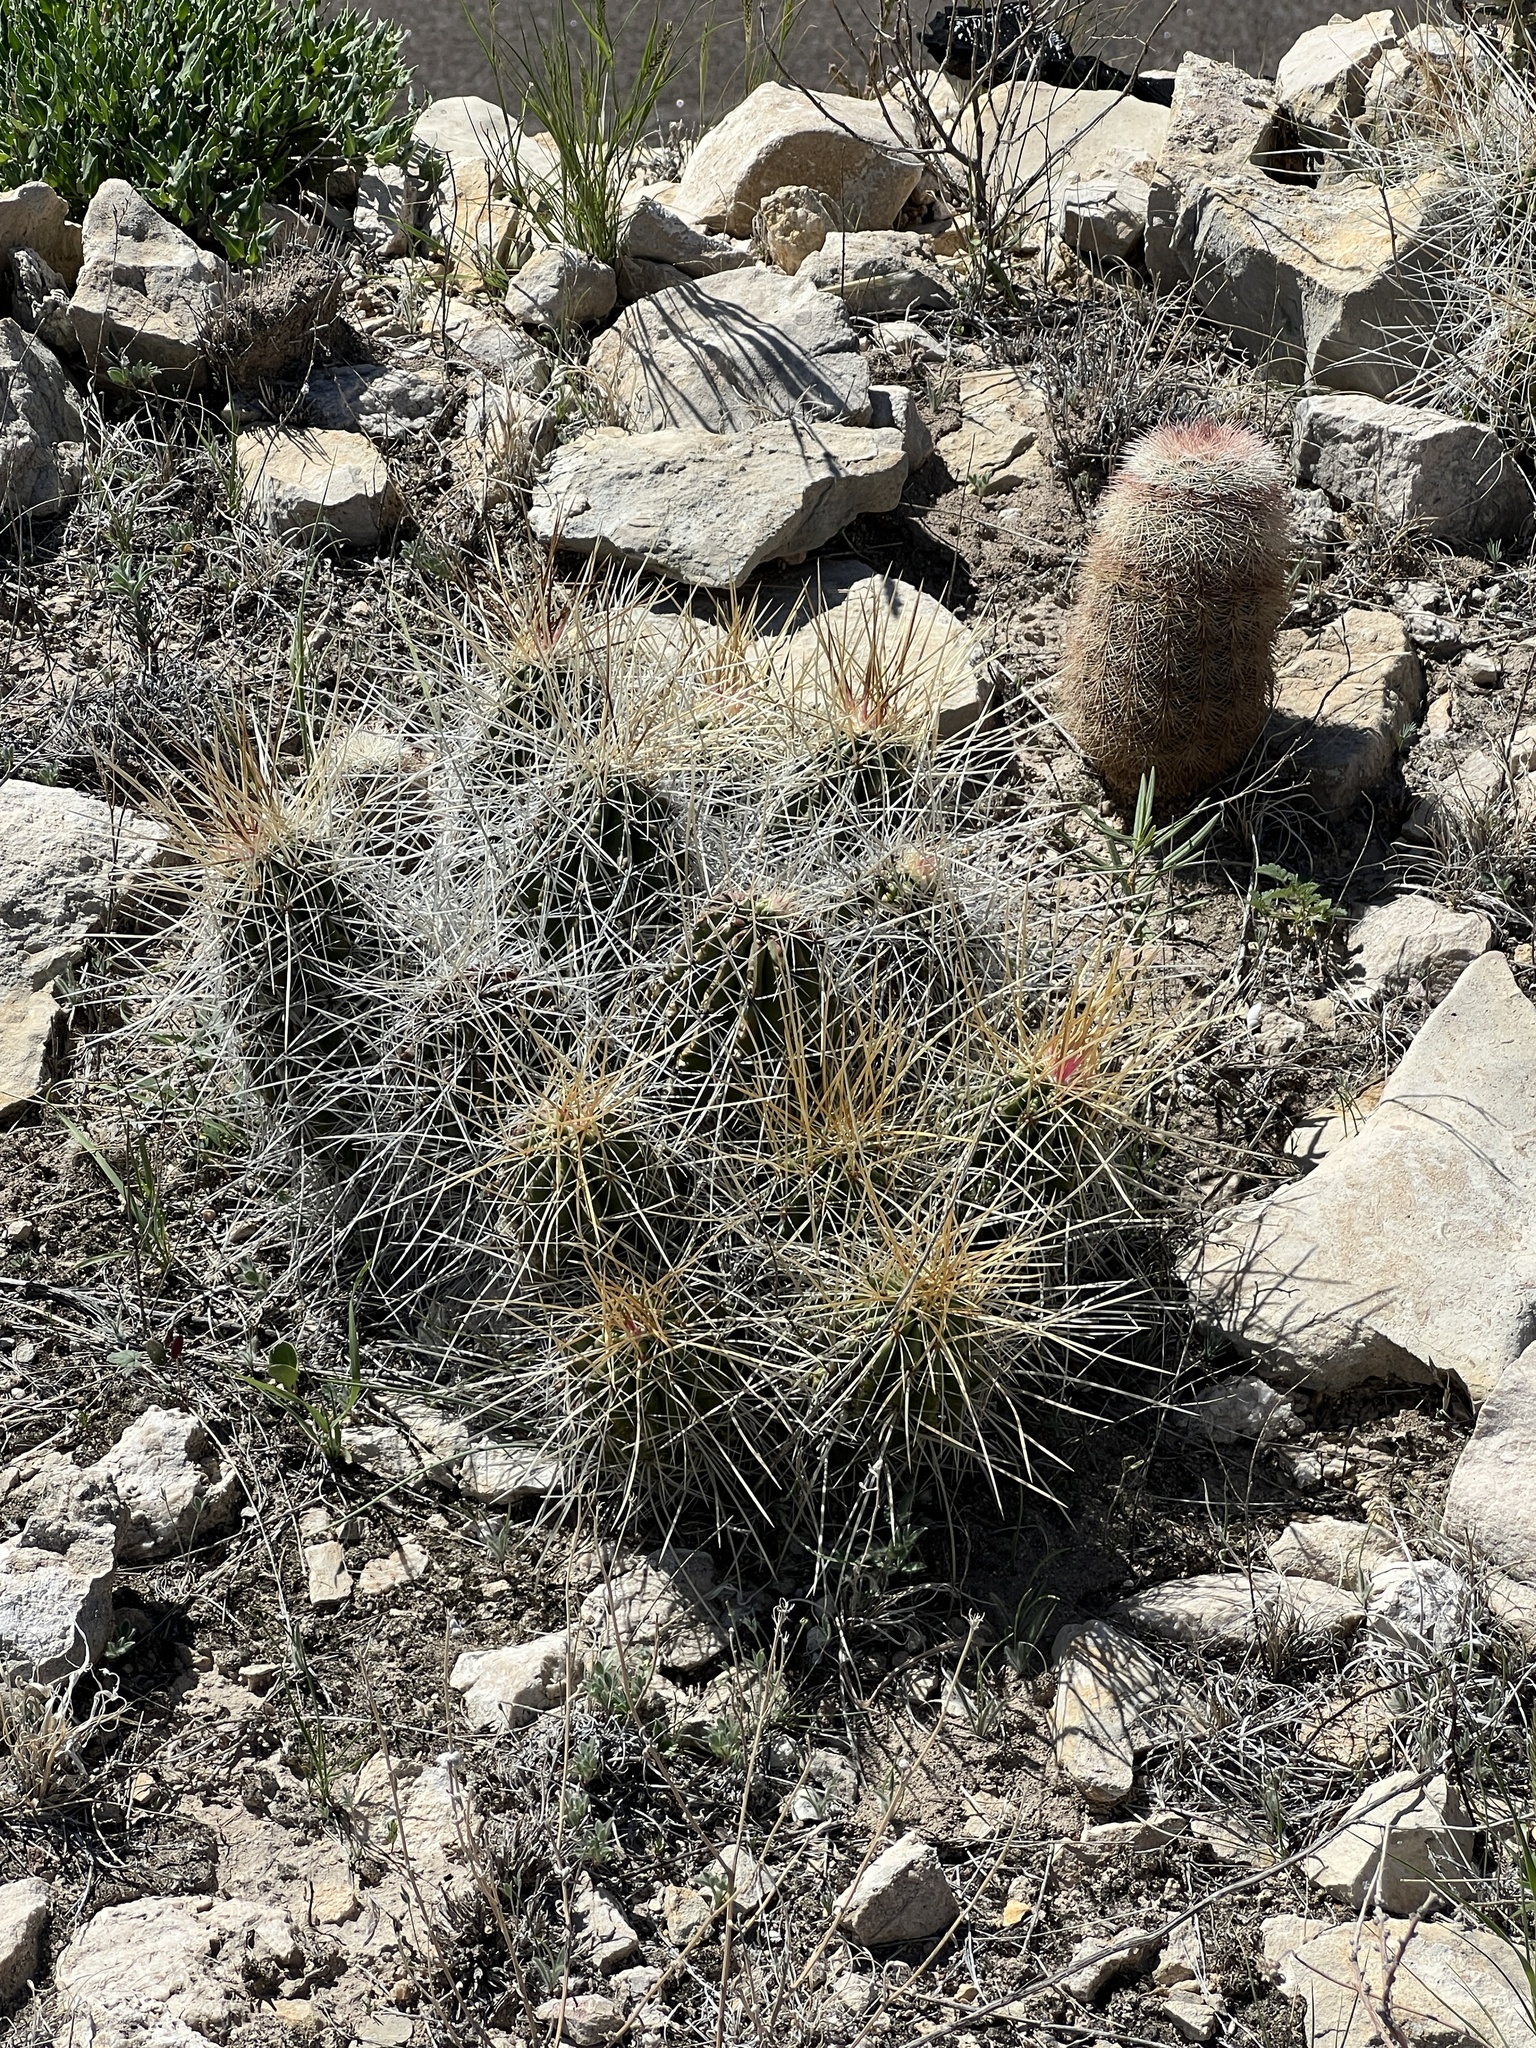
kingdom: Plantae
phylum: Tracheophyta
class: Magnoliopsida
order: Caryophyllales
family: Cactaceae
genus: Echinocereus
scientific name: Echinocereus stramineus
